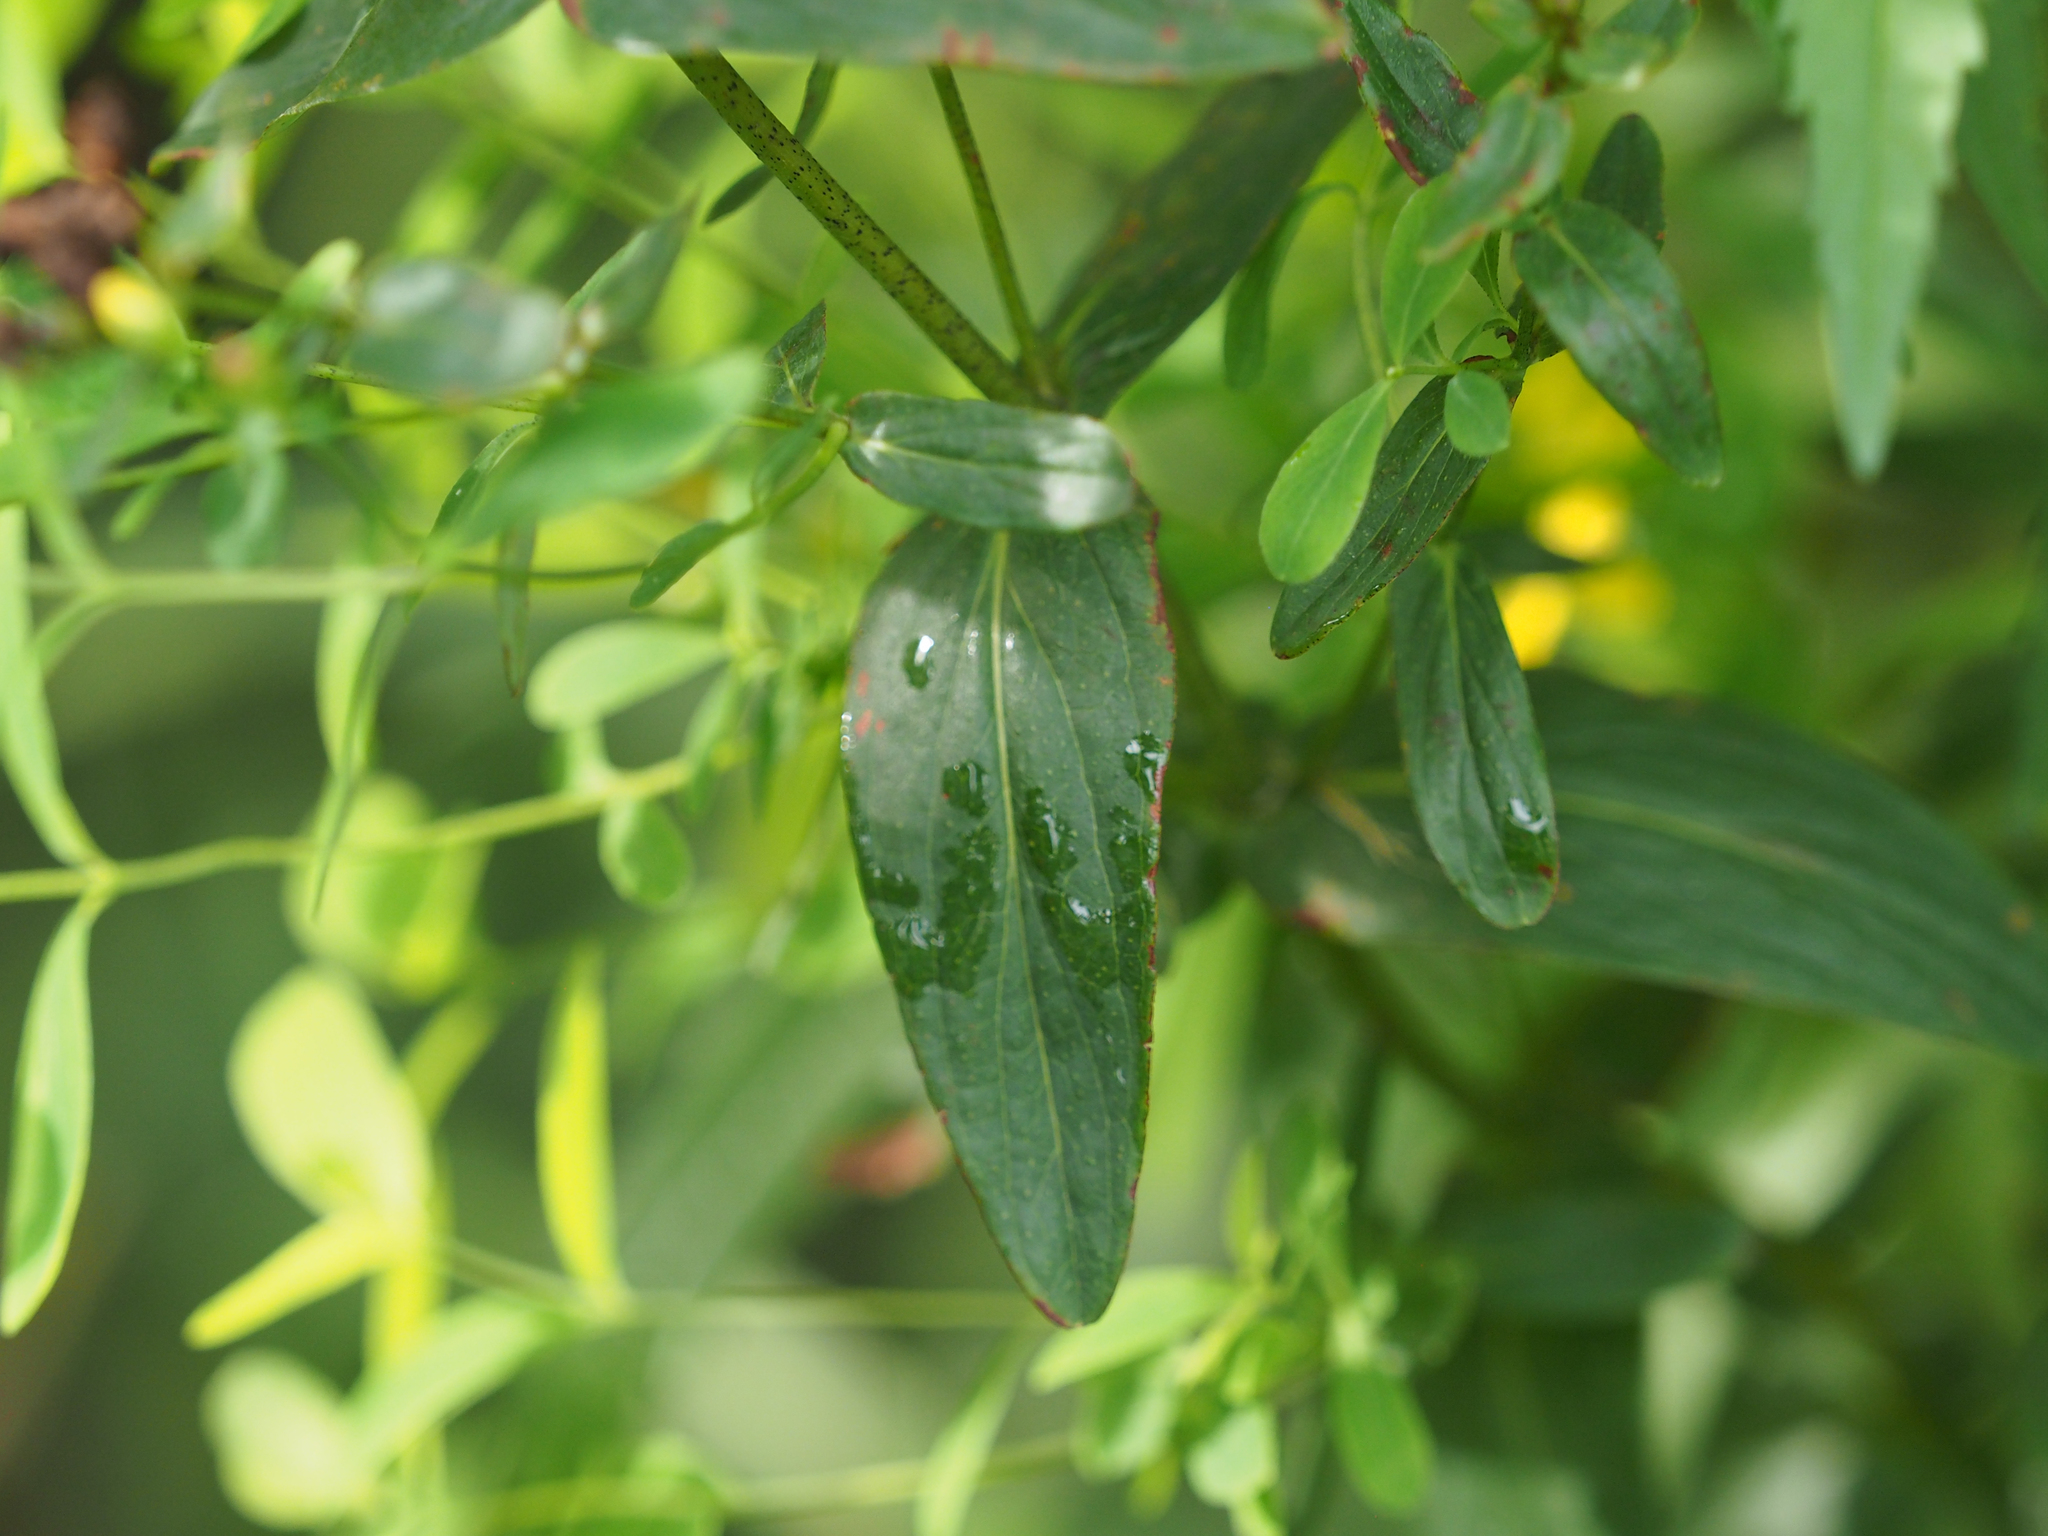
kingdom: Plantae
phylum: Tracheophyta
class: Magnoliopsida
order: Malpighiales
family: Hypericaceae
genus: Hypericum
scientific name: Hypericum punctatum
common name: Spotted st. john's-wort
